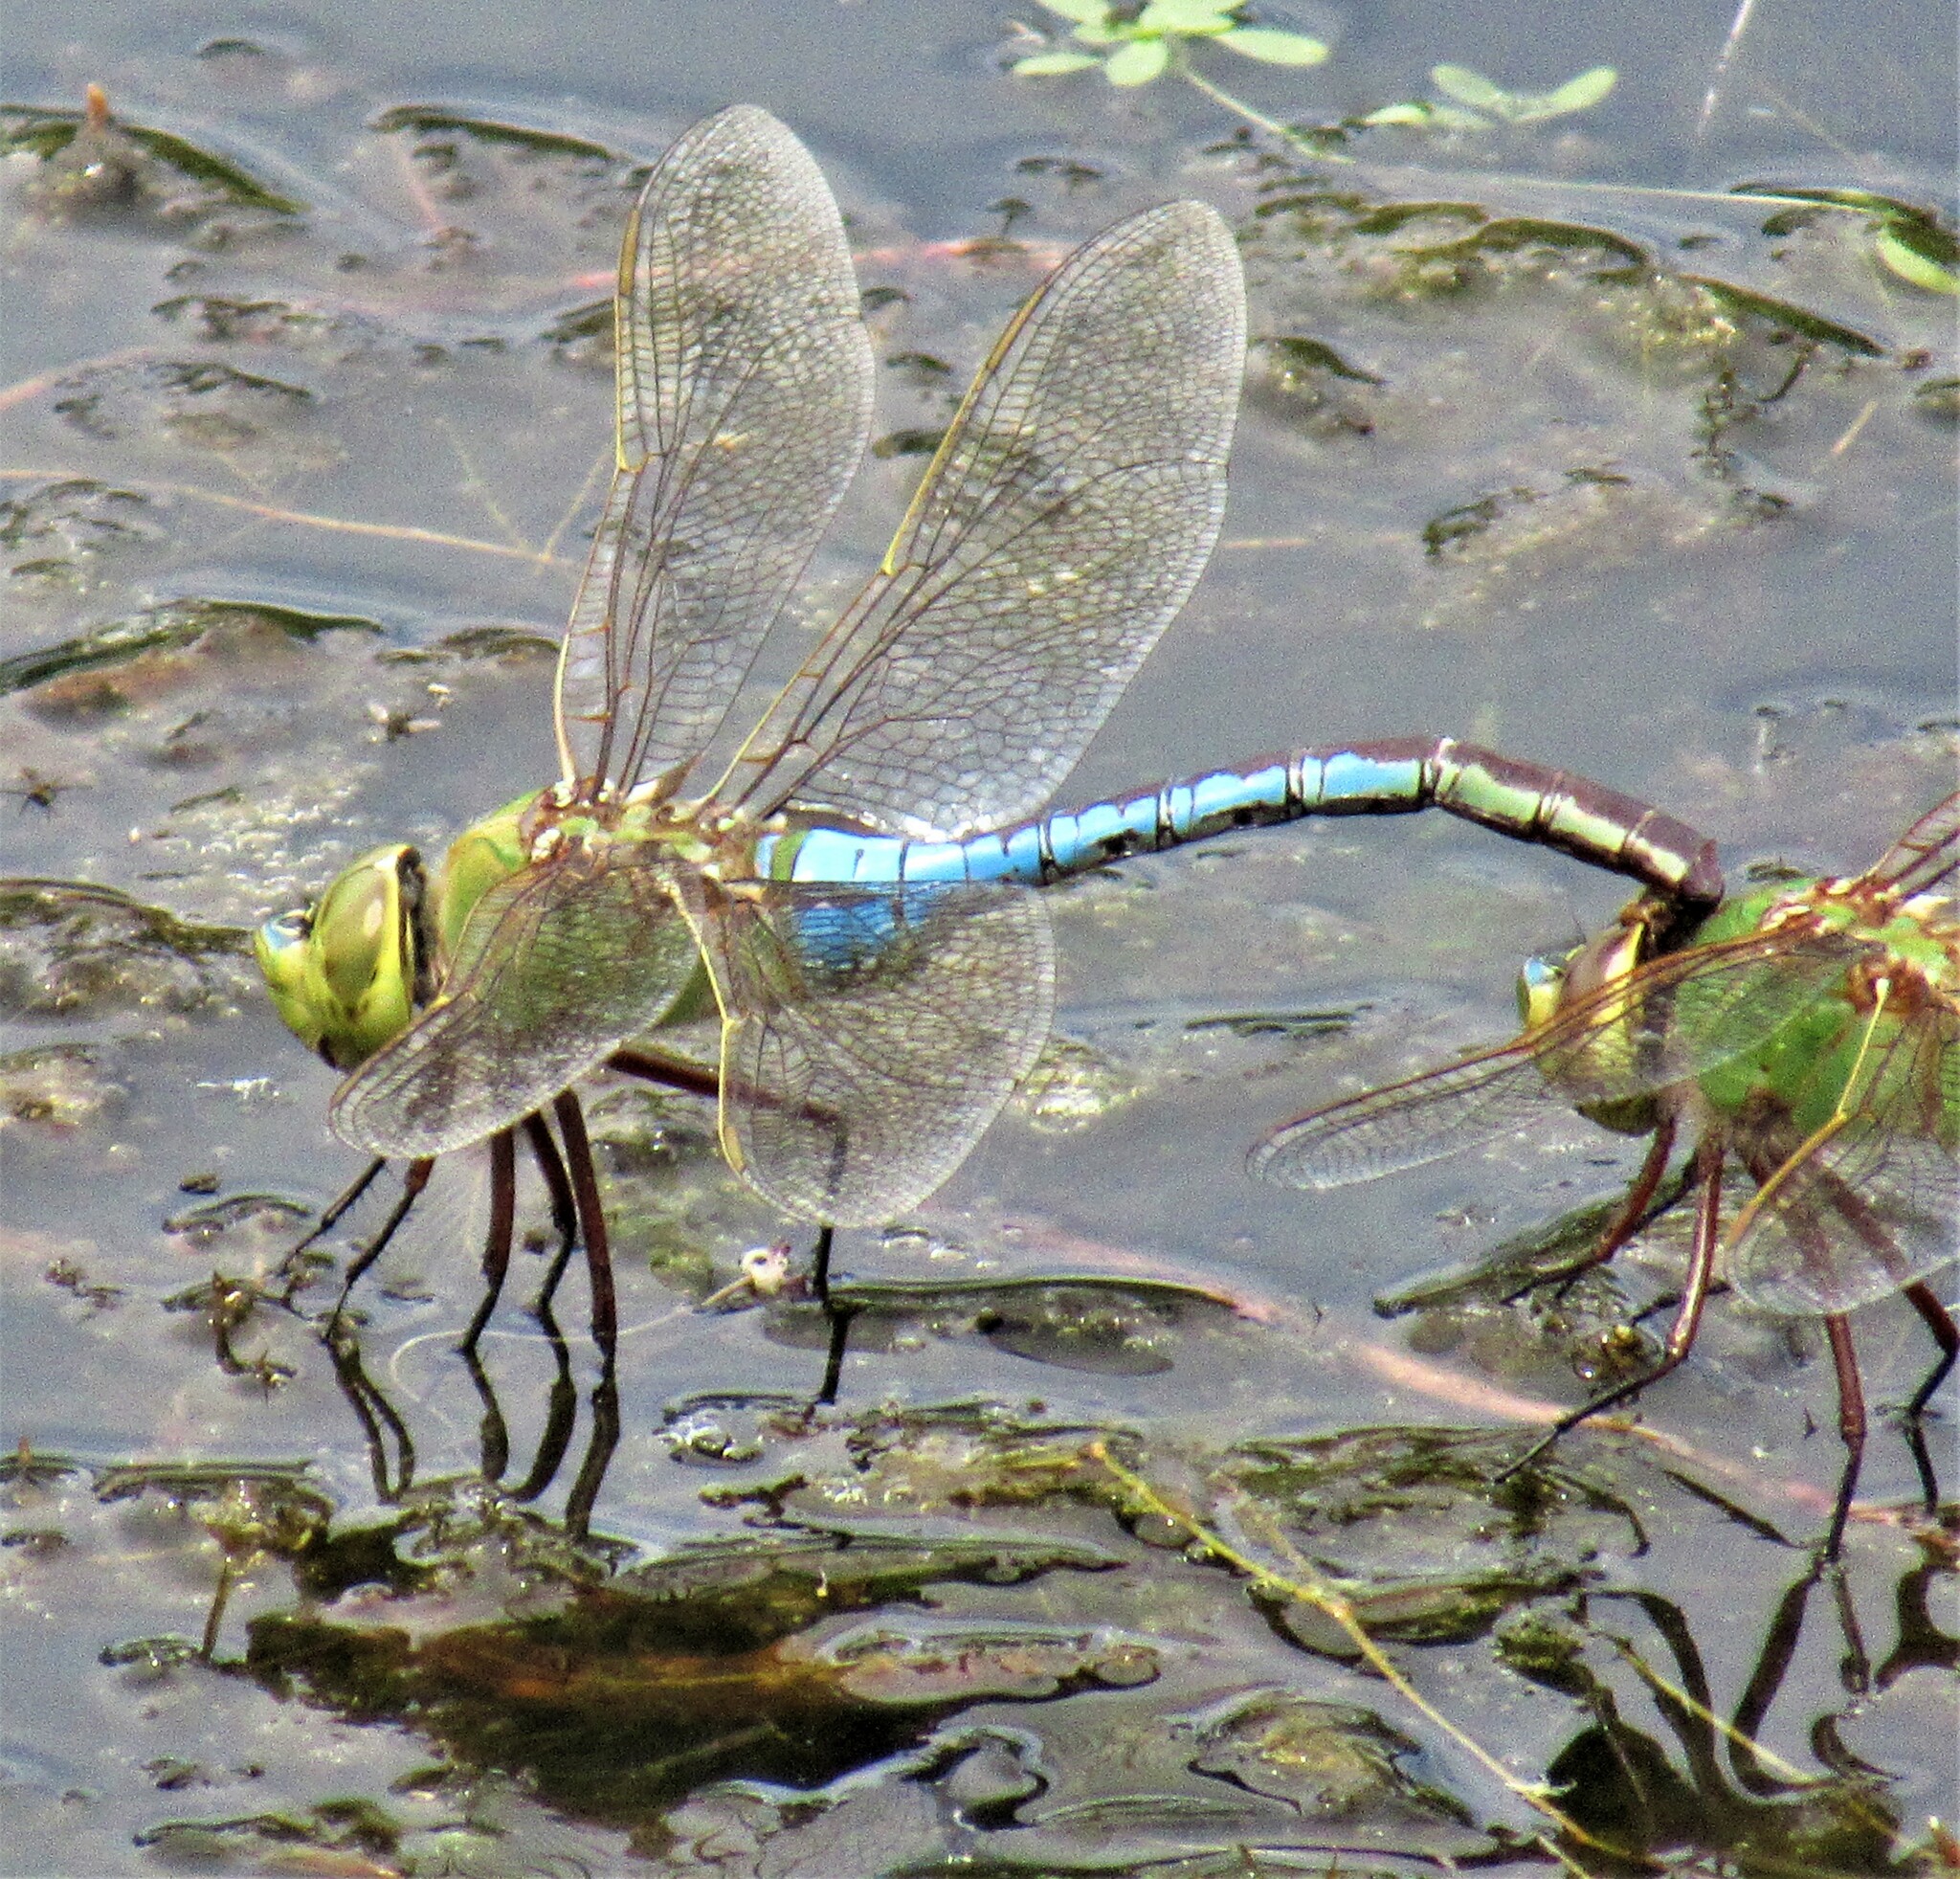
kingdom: Animalia
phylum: Arthropoda
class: Insecta
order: Odonata
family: Aeshnidae
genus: Anax
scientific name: Anax junius
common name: Common green darner
